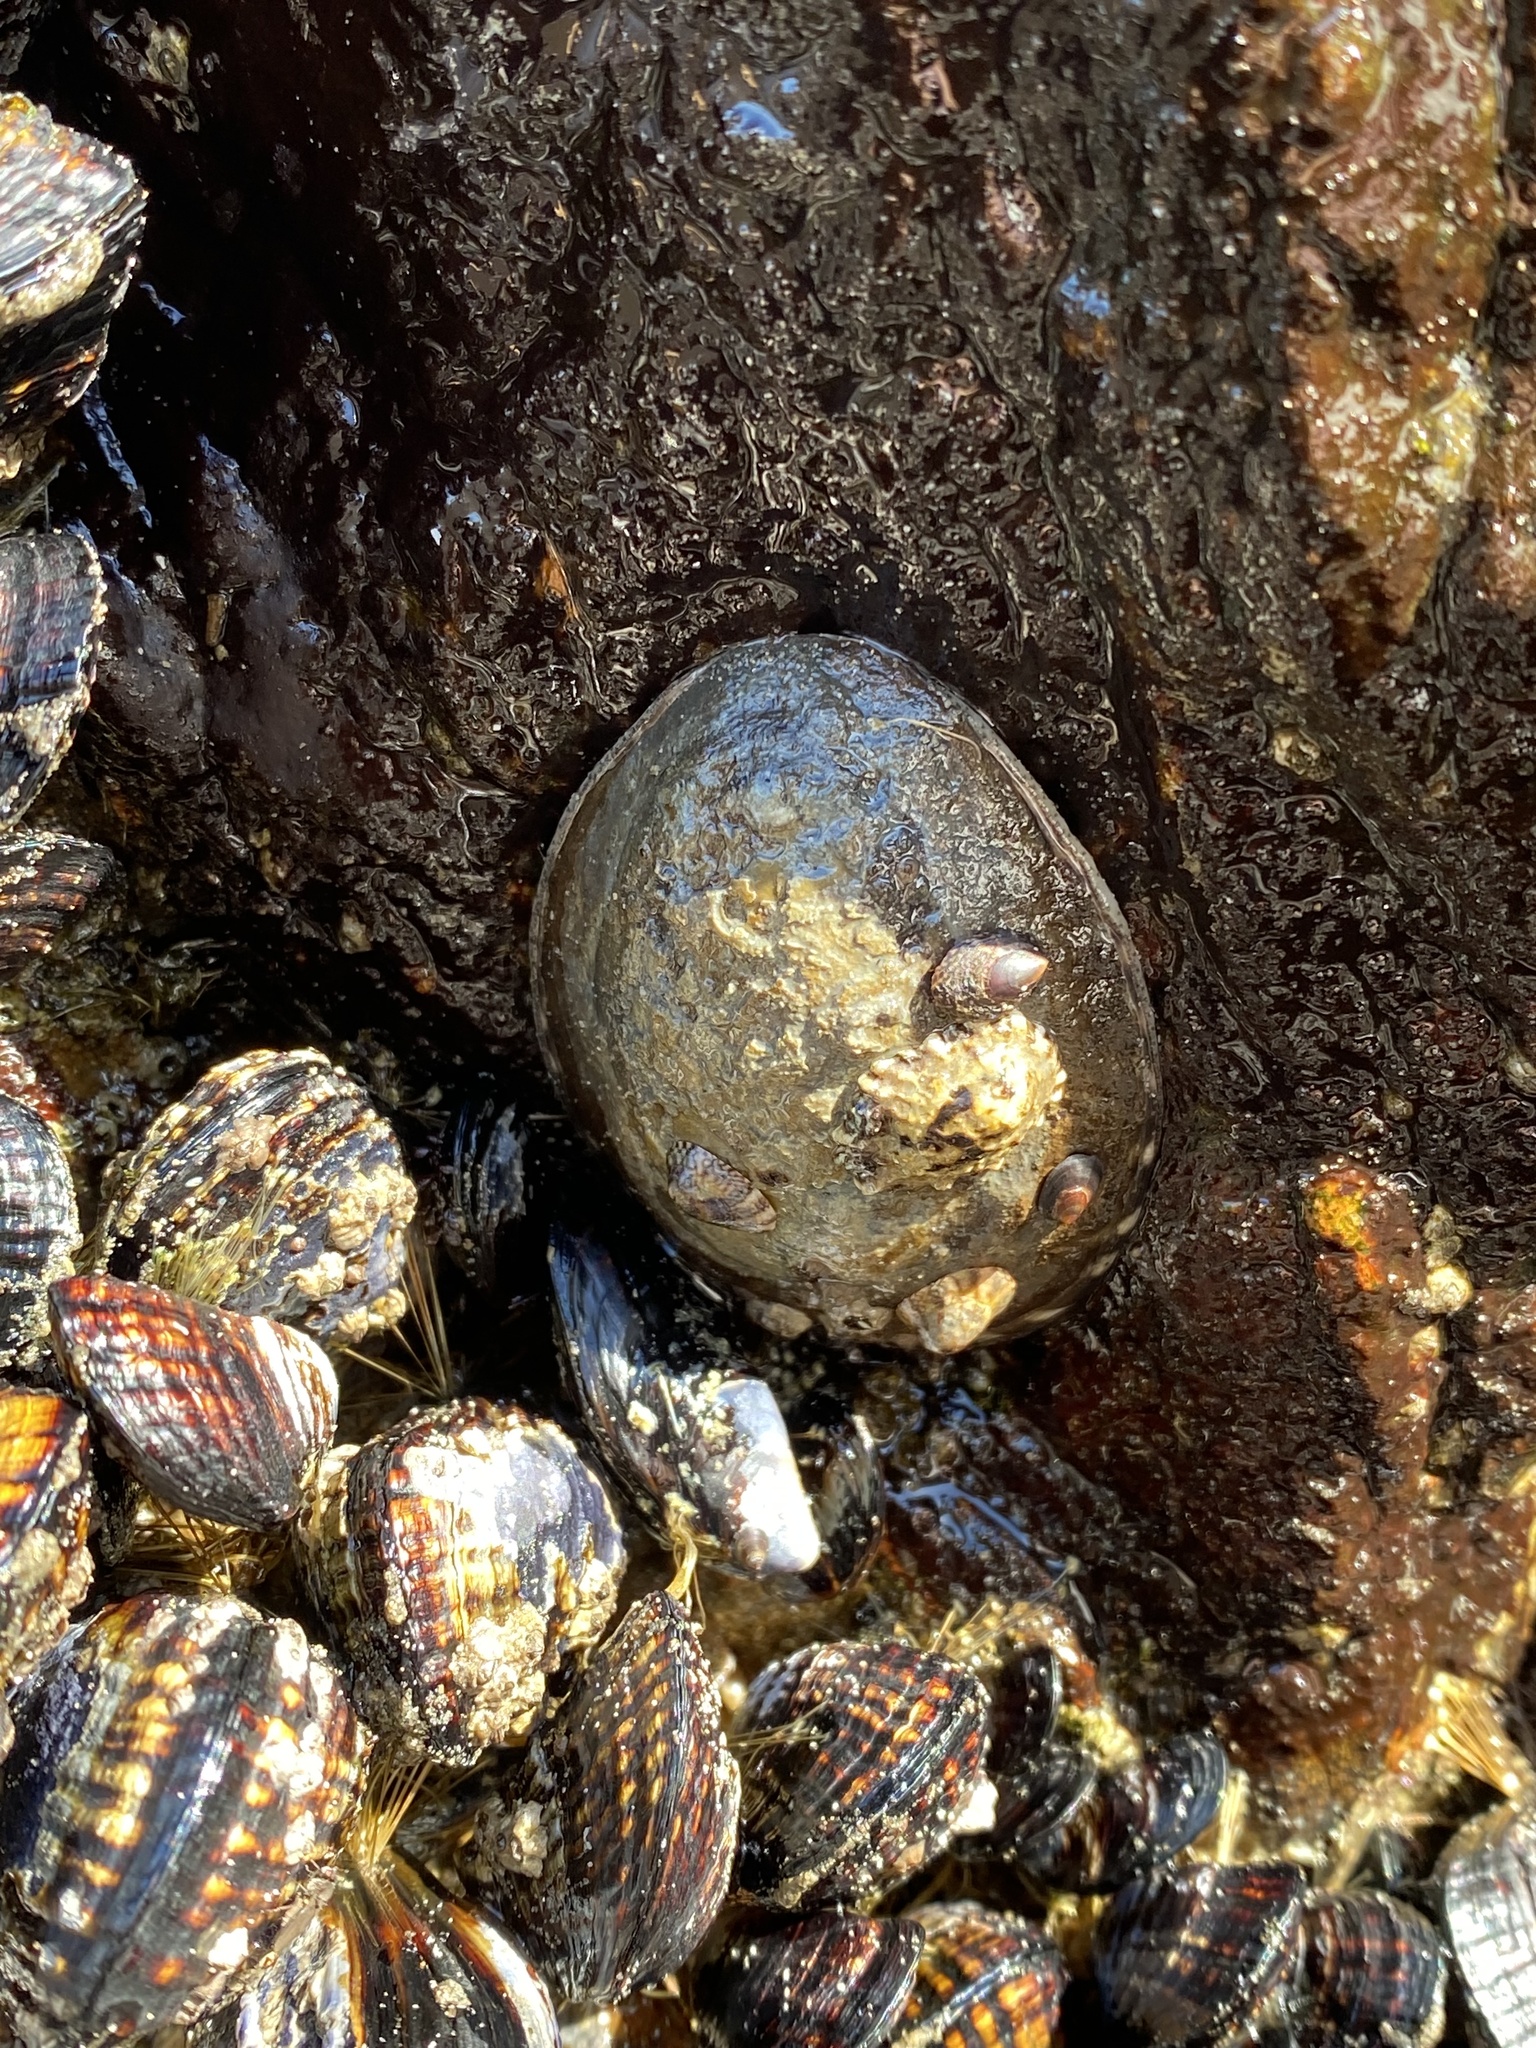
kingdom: Animalia
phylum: Mollusca
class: Gastropoda
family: Lottiidae
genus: Lottia
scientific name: Lottia gigantea
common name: Owl limpet
